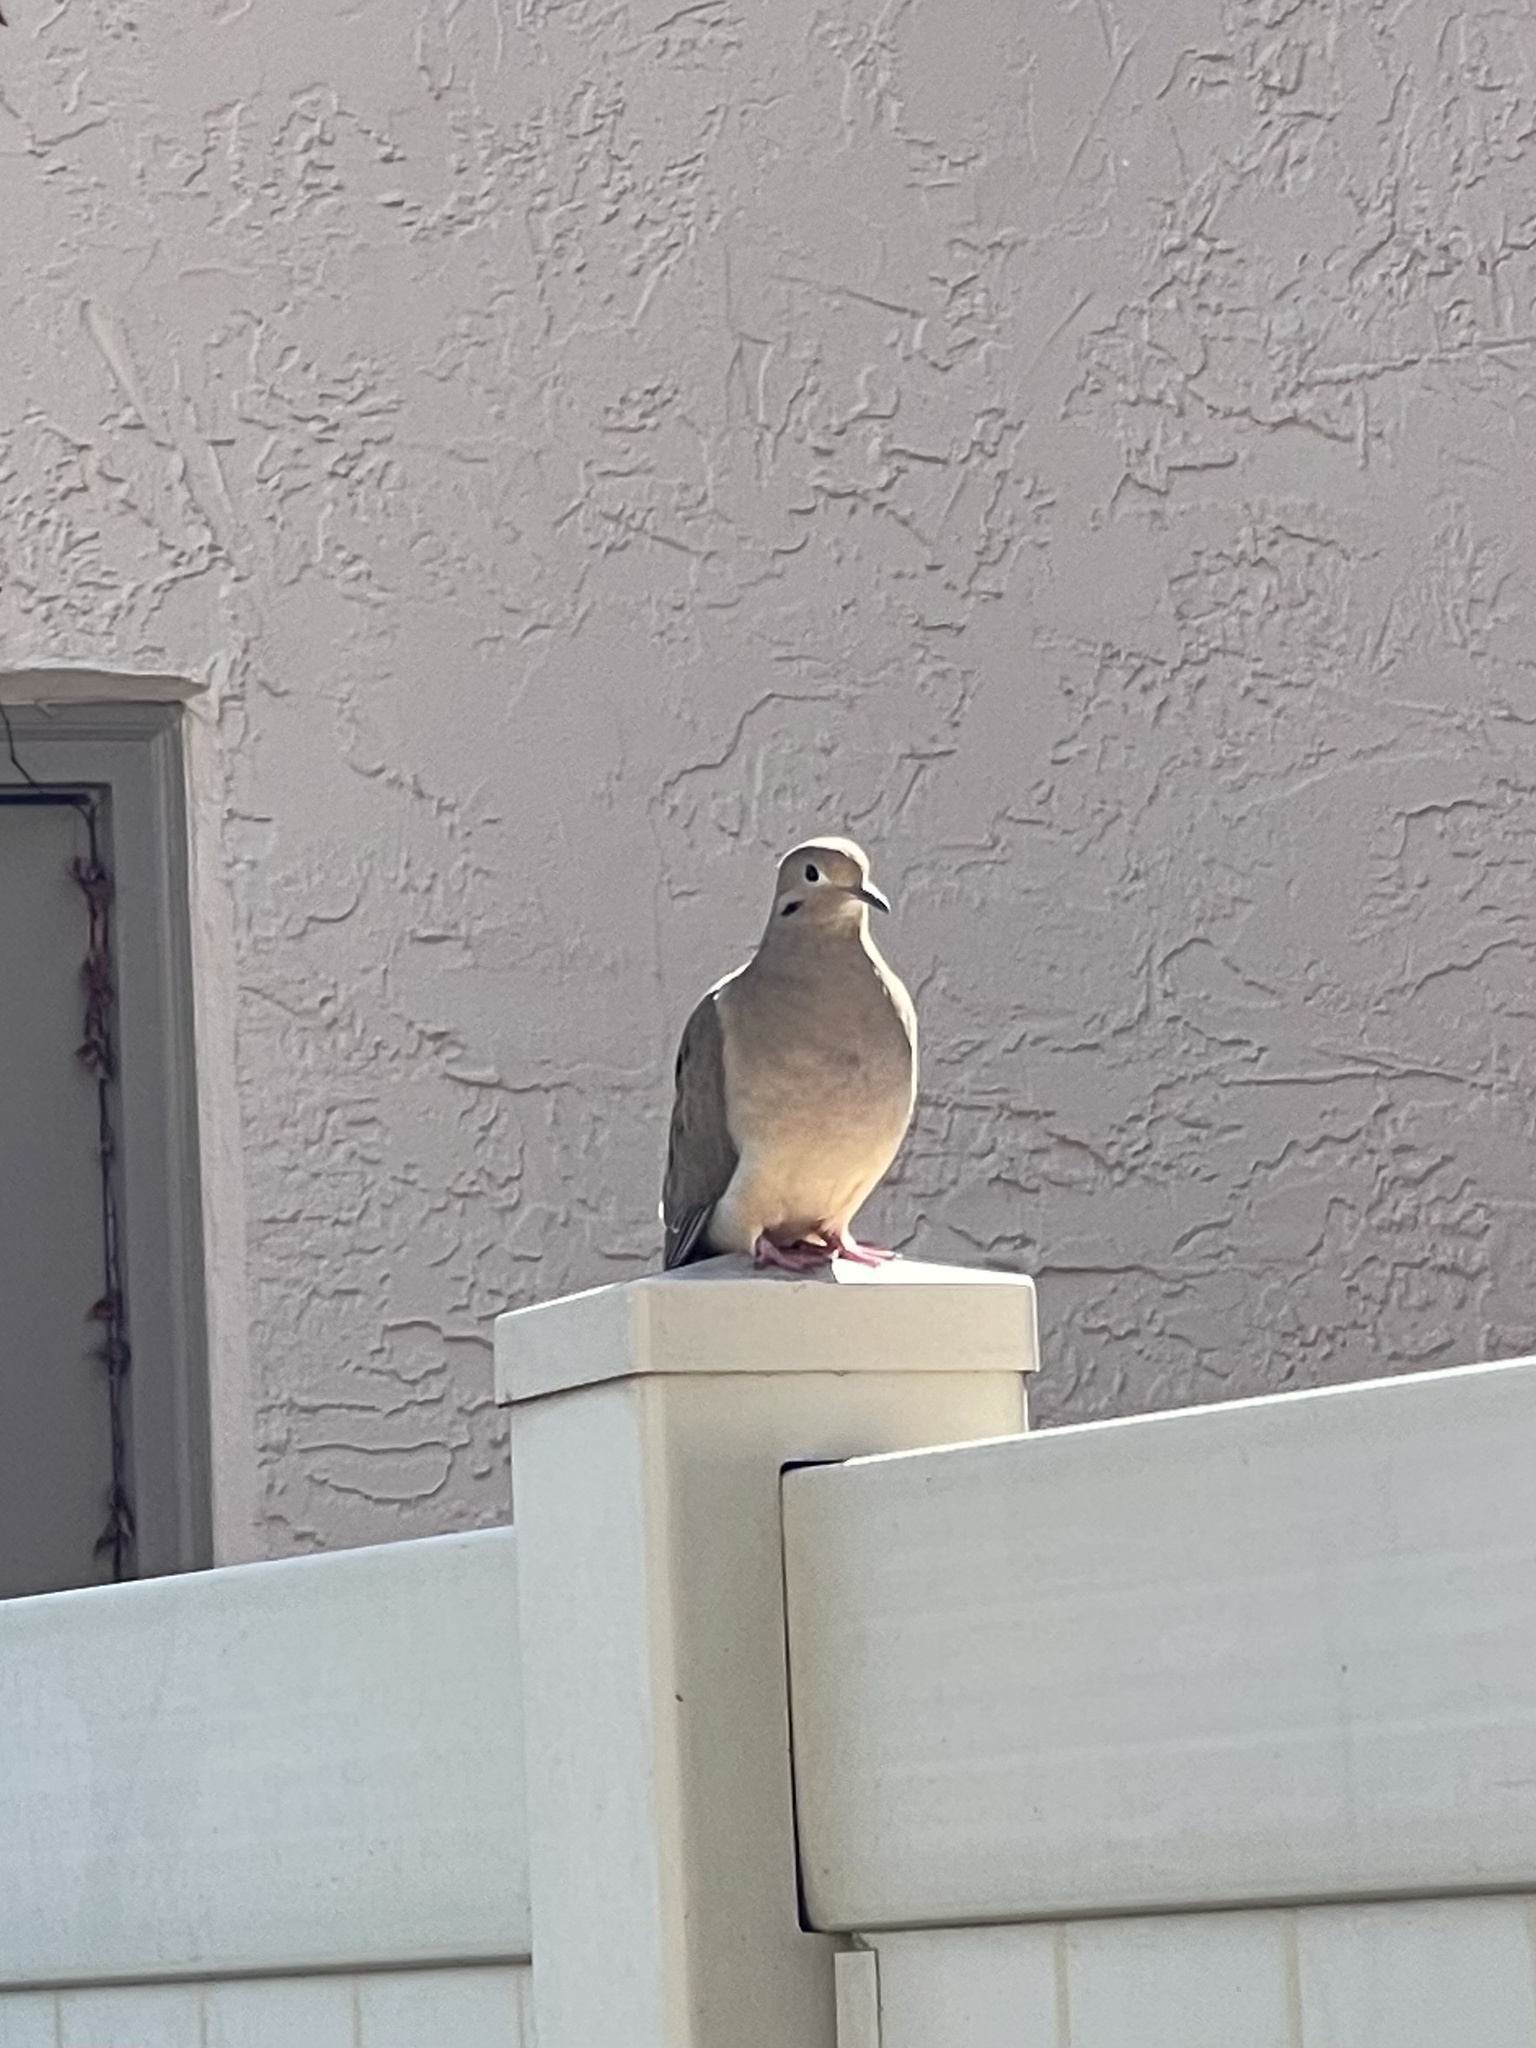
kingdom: Animalia
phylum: Chordata
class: Aves
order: Columbiformes
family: Columbidae
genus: Zenaida
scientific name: Zenaida macroura
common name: Mourning dove
